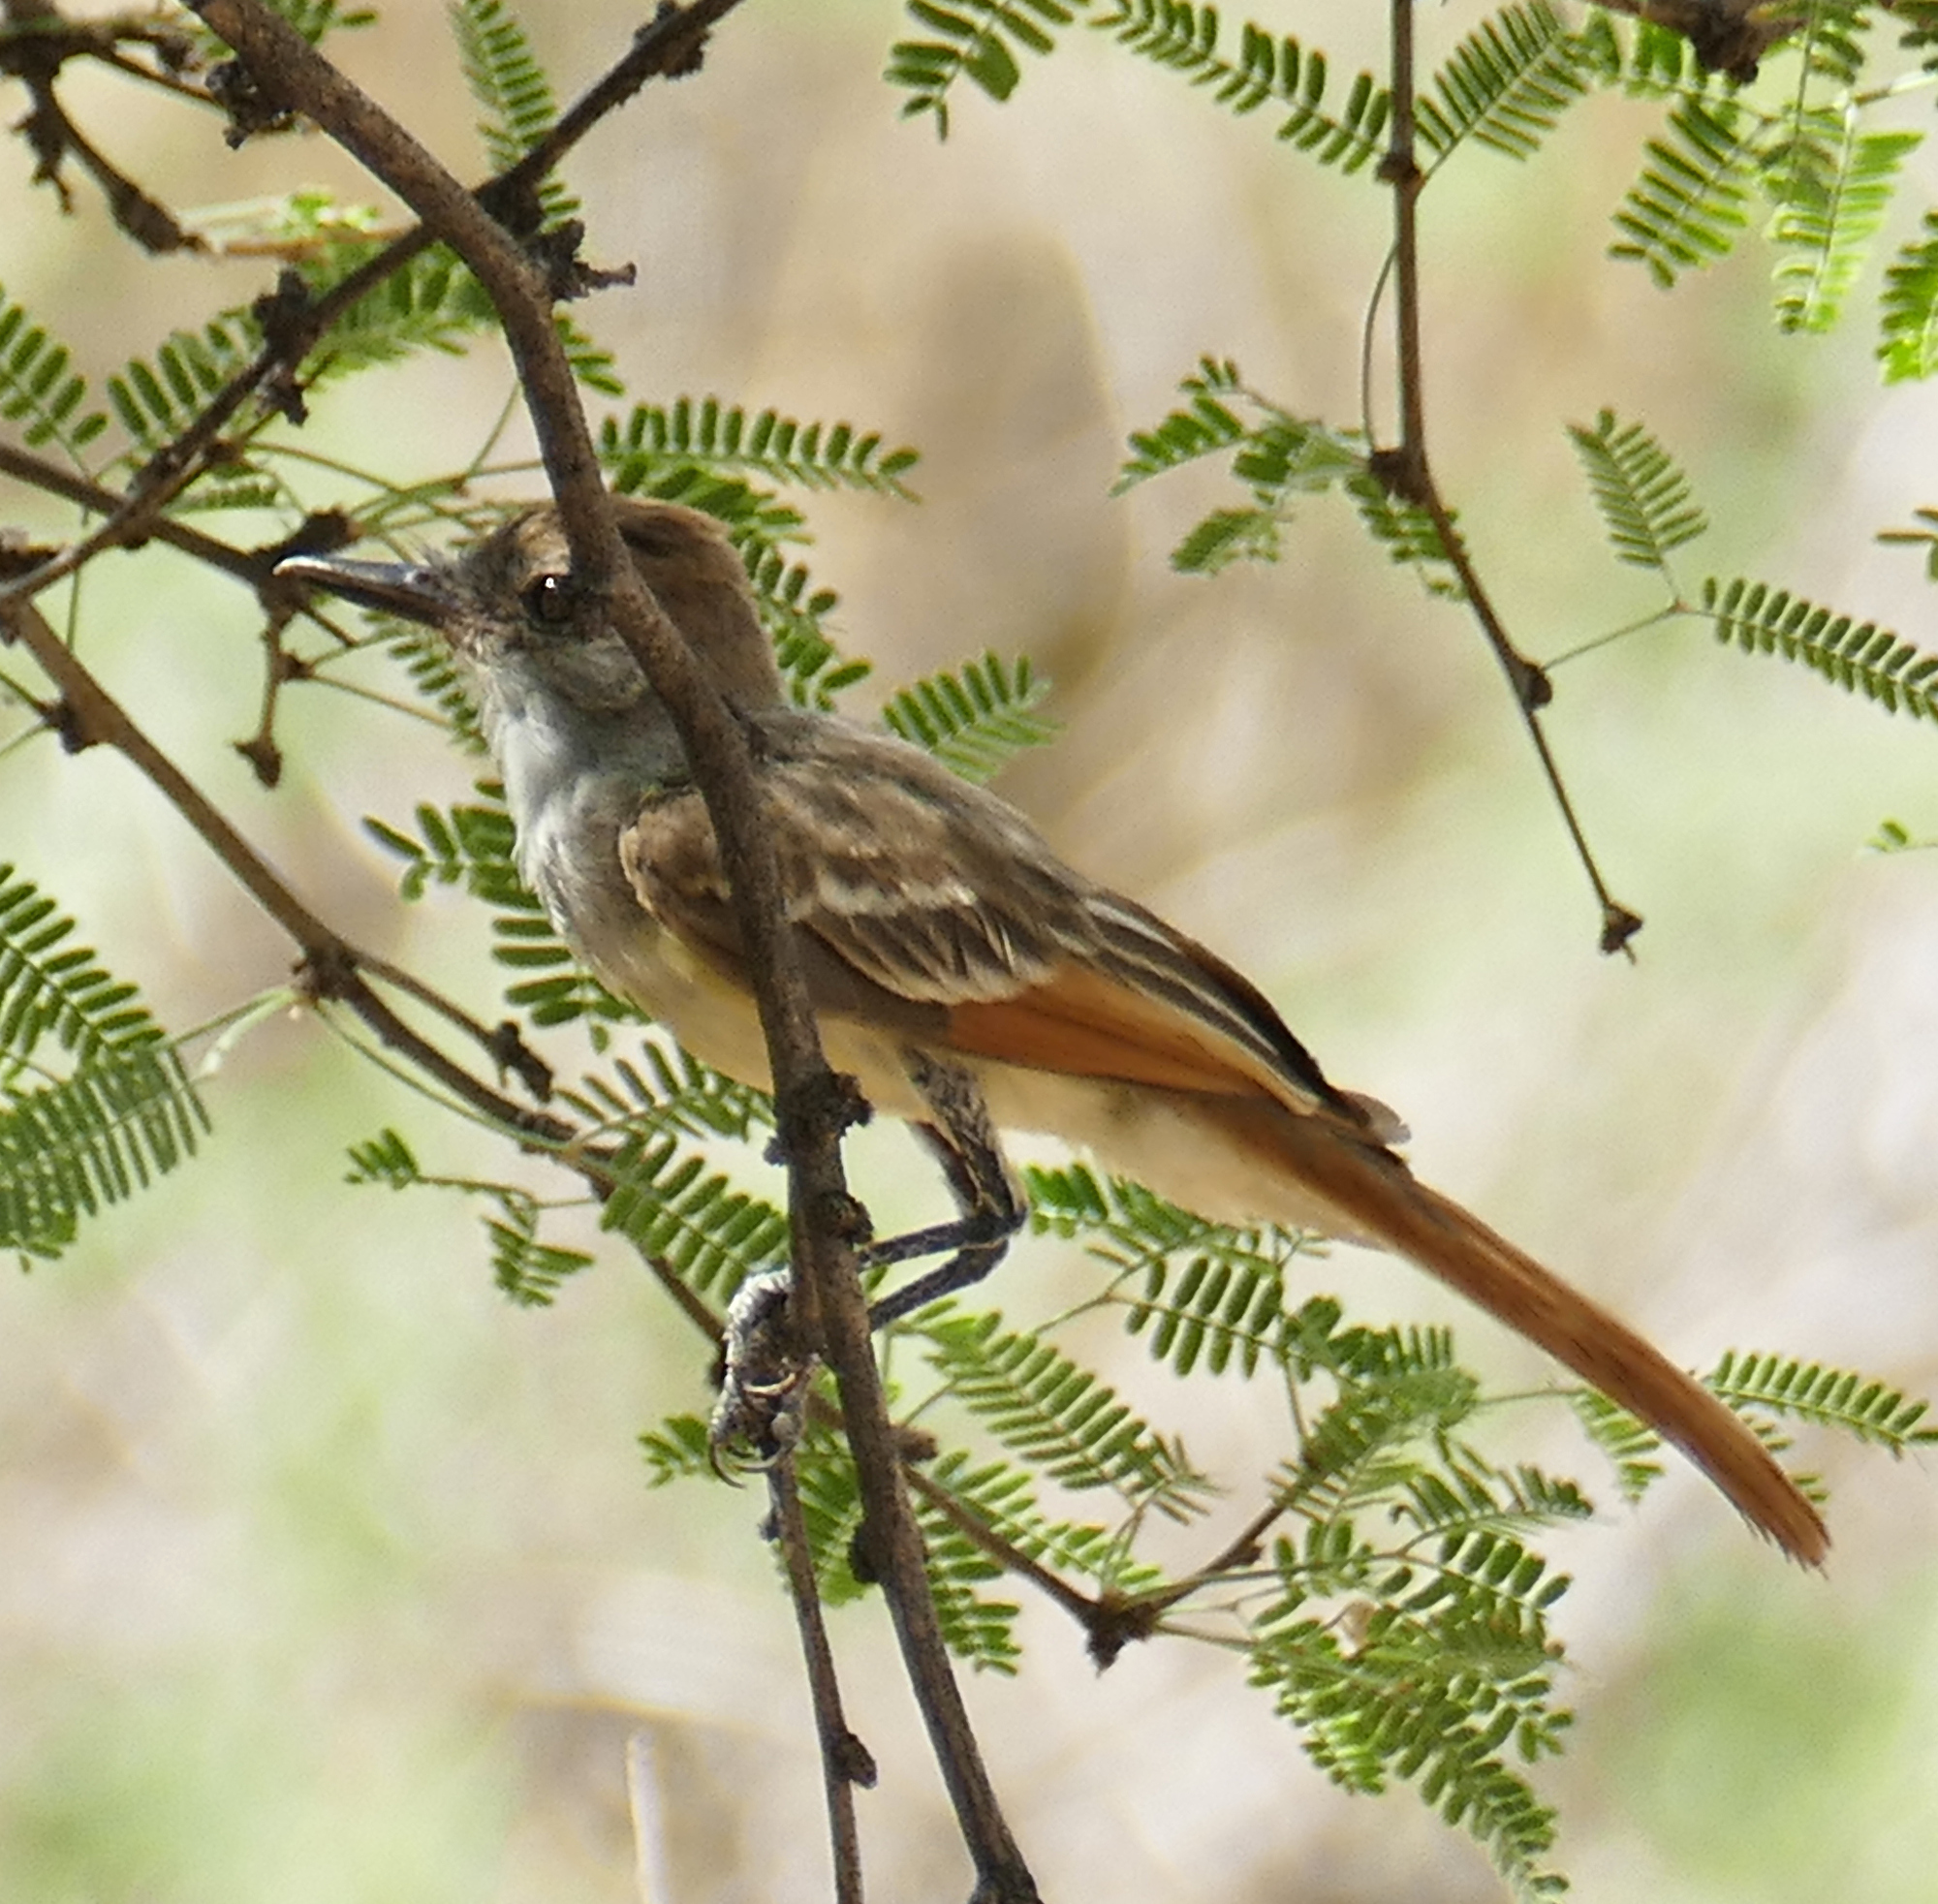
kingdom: Animalia
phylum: Chordata
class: Aves
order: Passeriformes
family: Tyrannidae
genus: Myiarchus
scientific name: Myiarchus cinerascens
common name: Ash-throated flycatcher
